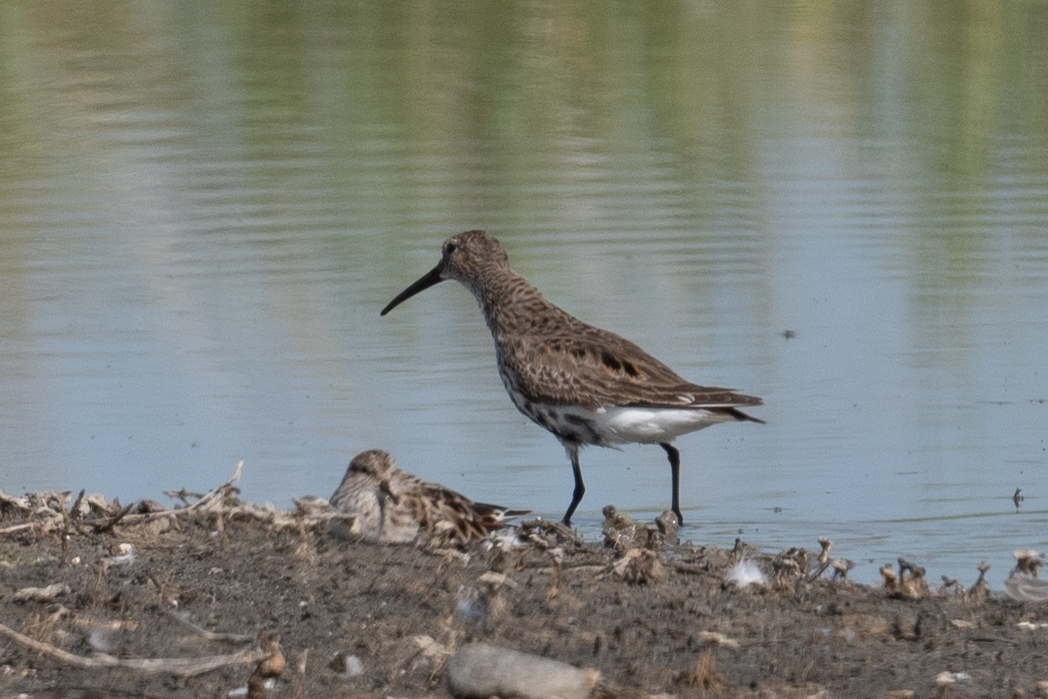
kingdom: Animalia
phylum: Chordata
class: Aves
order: Charadriiformes
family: Scolopacidae
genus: Calidris
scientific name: Calidris alpina
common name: Dunlin
